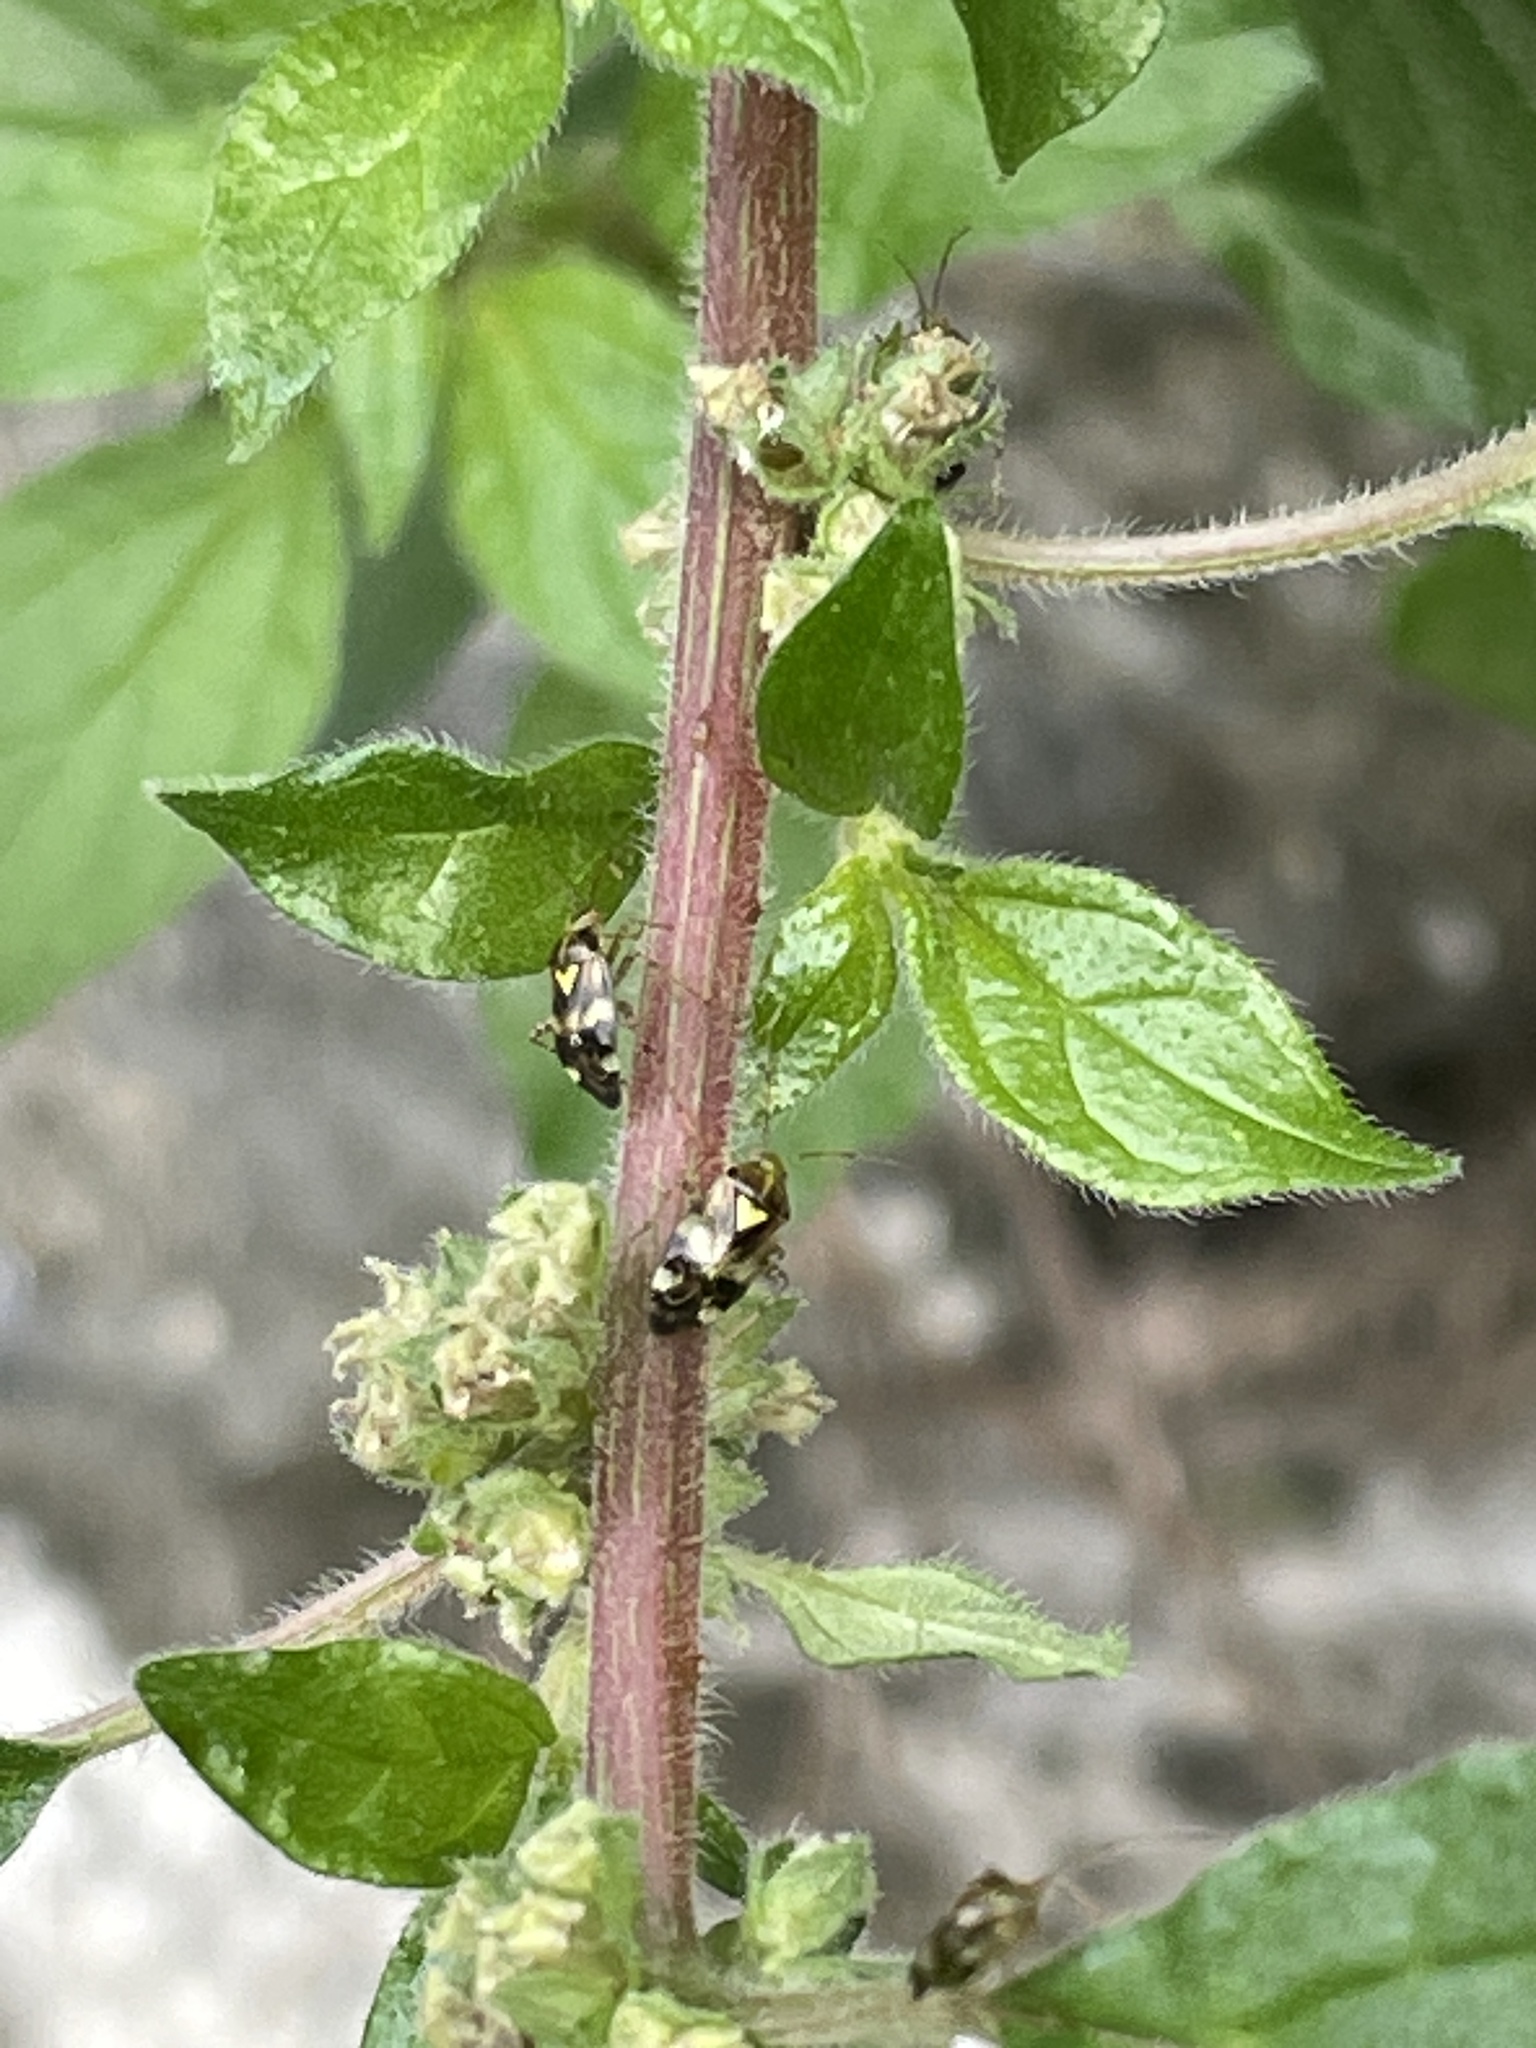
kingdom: Animalia
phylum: Arthropoda
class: Insecta
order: Hemiptera
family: Miridae
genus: Liocoris
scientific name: Liocoris tripustulatus
